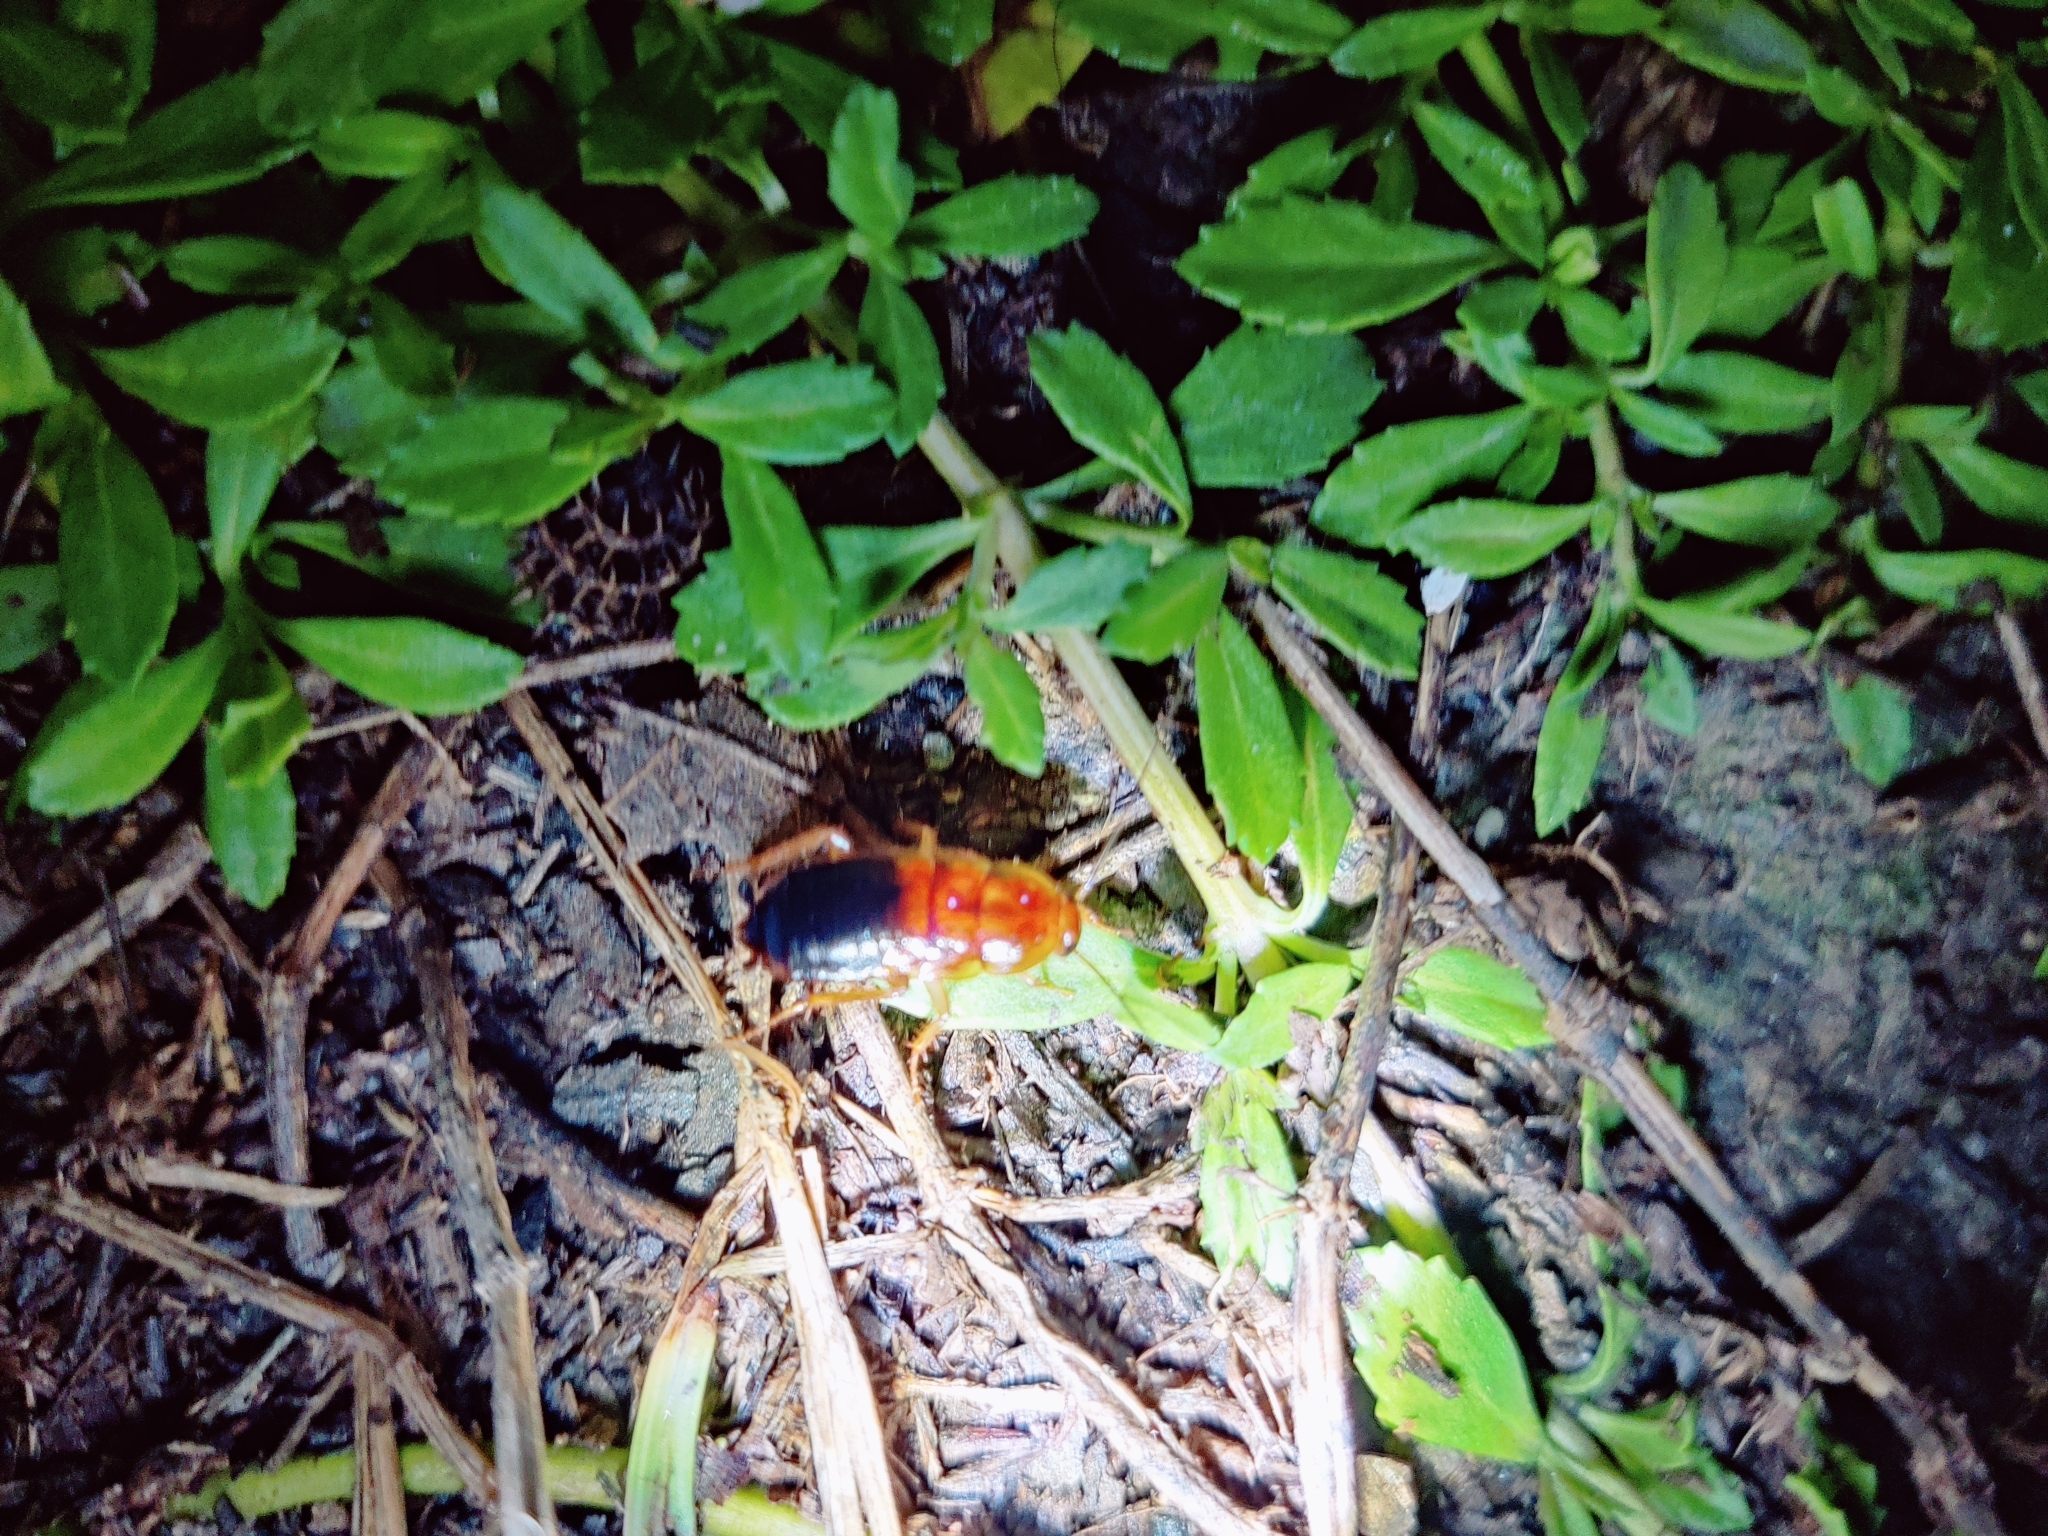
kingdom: Animalia
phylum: Arthropoda
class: Insecta
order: Blattodea
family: Blattidae
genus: Periplaneta
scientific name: Periplaneta lateralis
